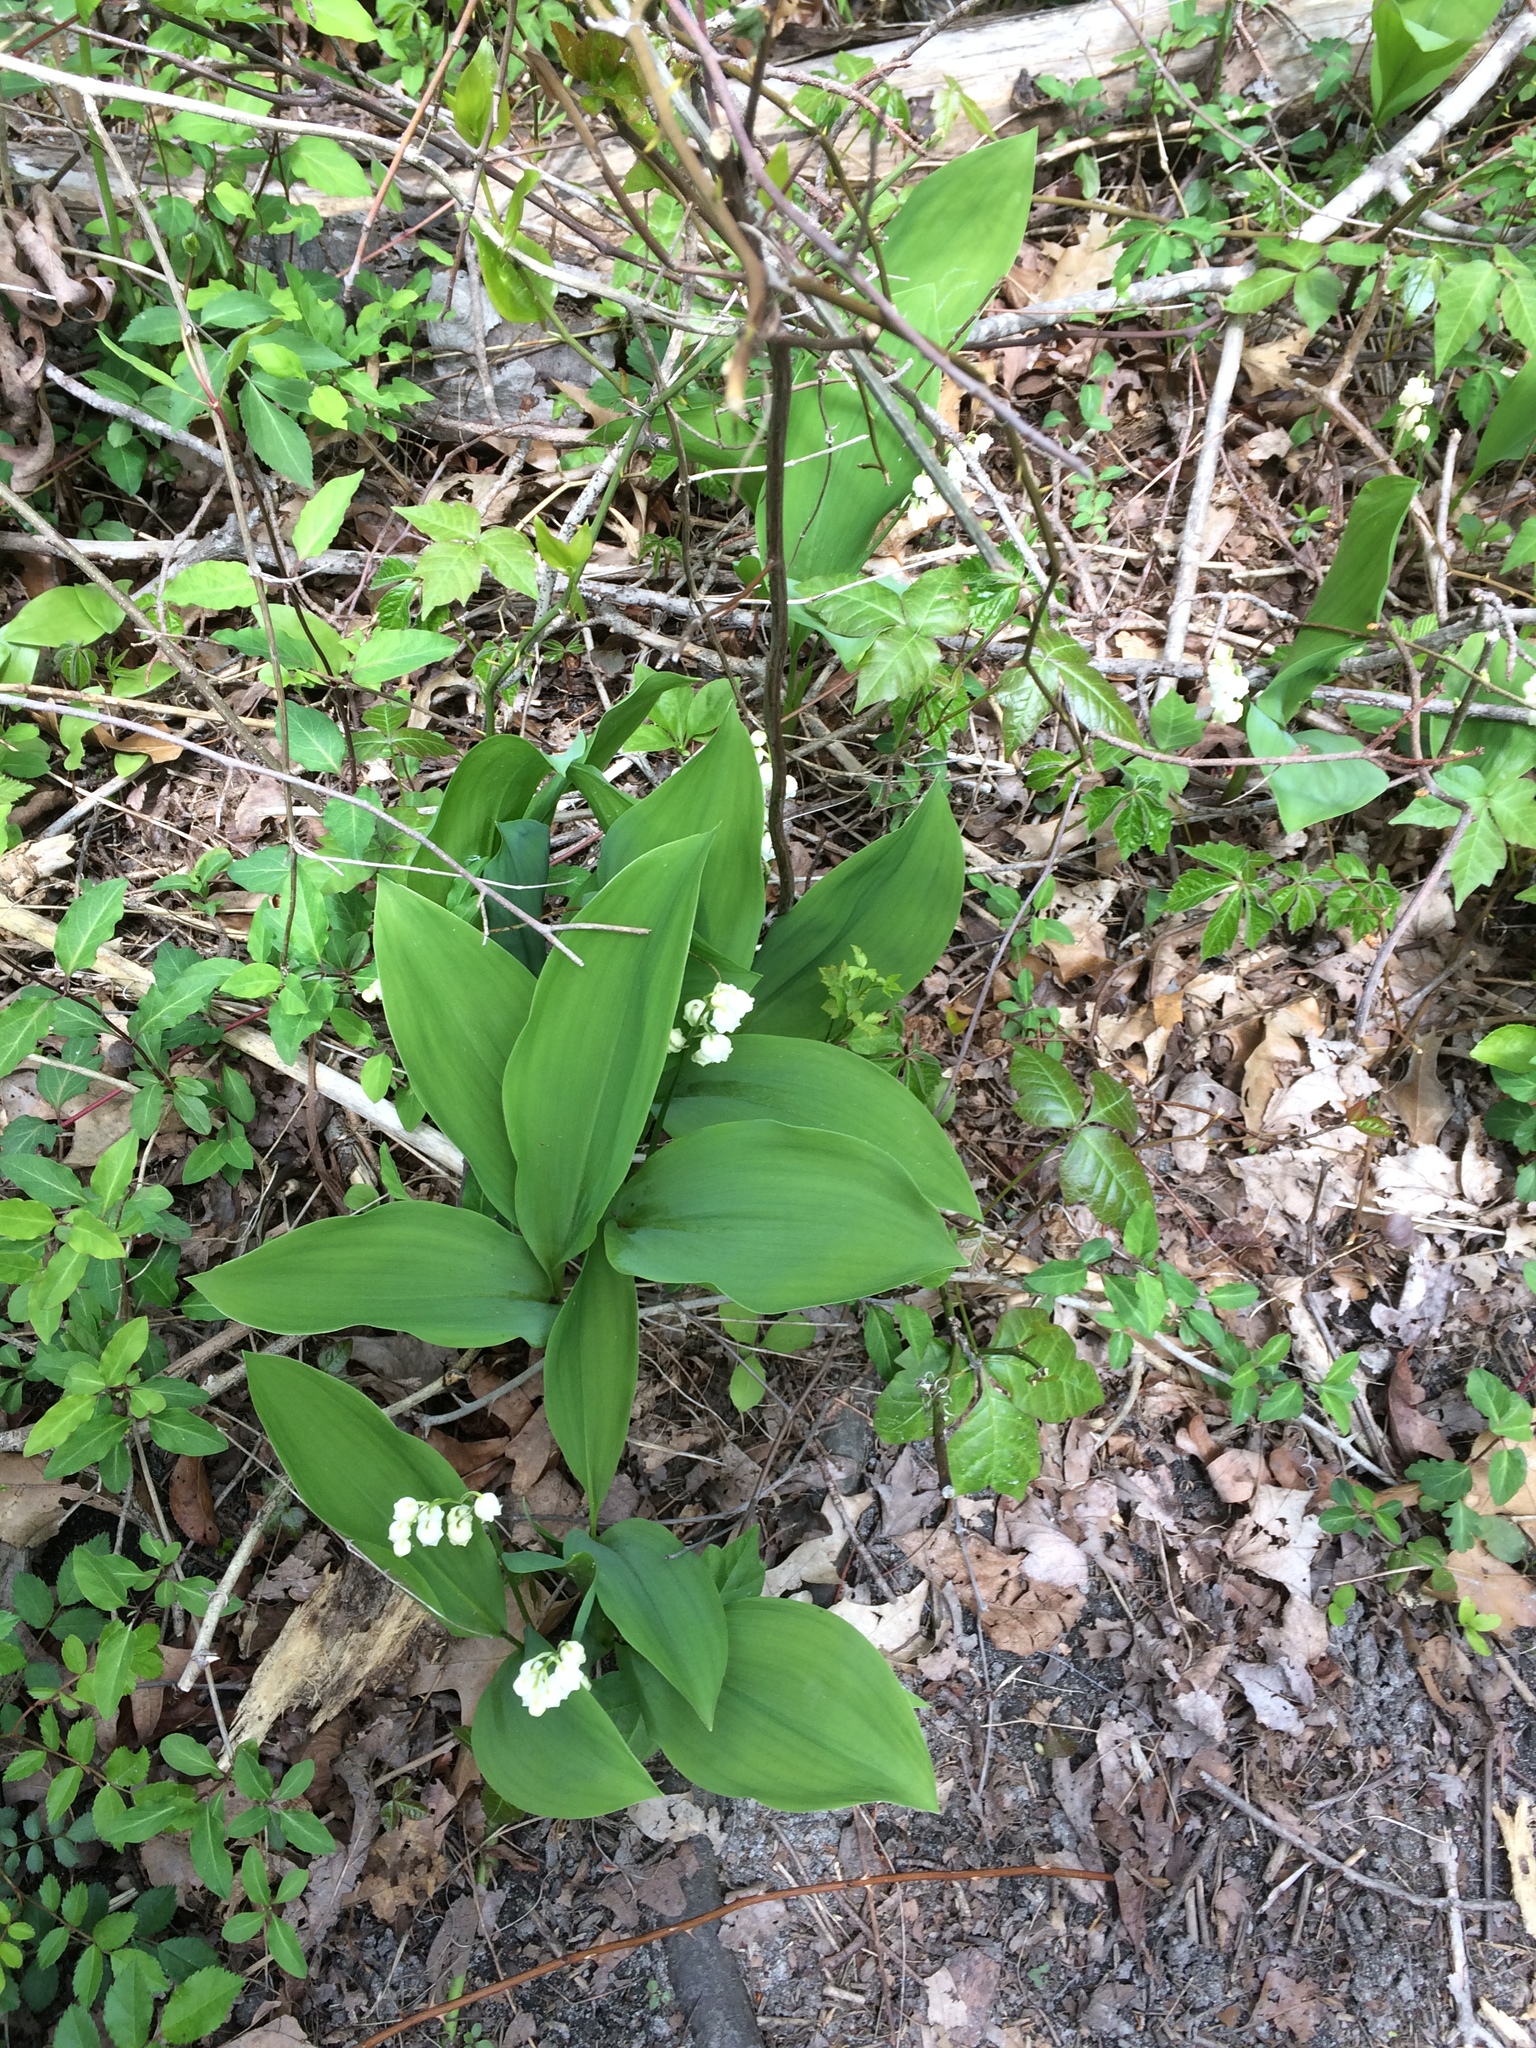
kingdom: Plantae
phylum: Tracheophyta
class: Liliopsida
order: Asparagales
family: Asparagaceae
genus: Convallaria
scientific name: Convallaria majalis
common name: Lily-of-the-valley
